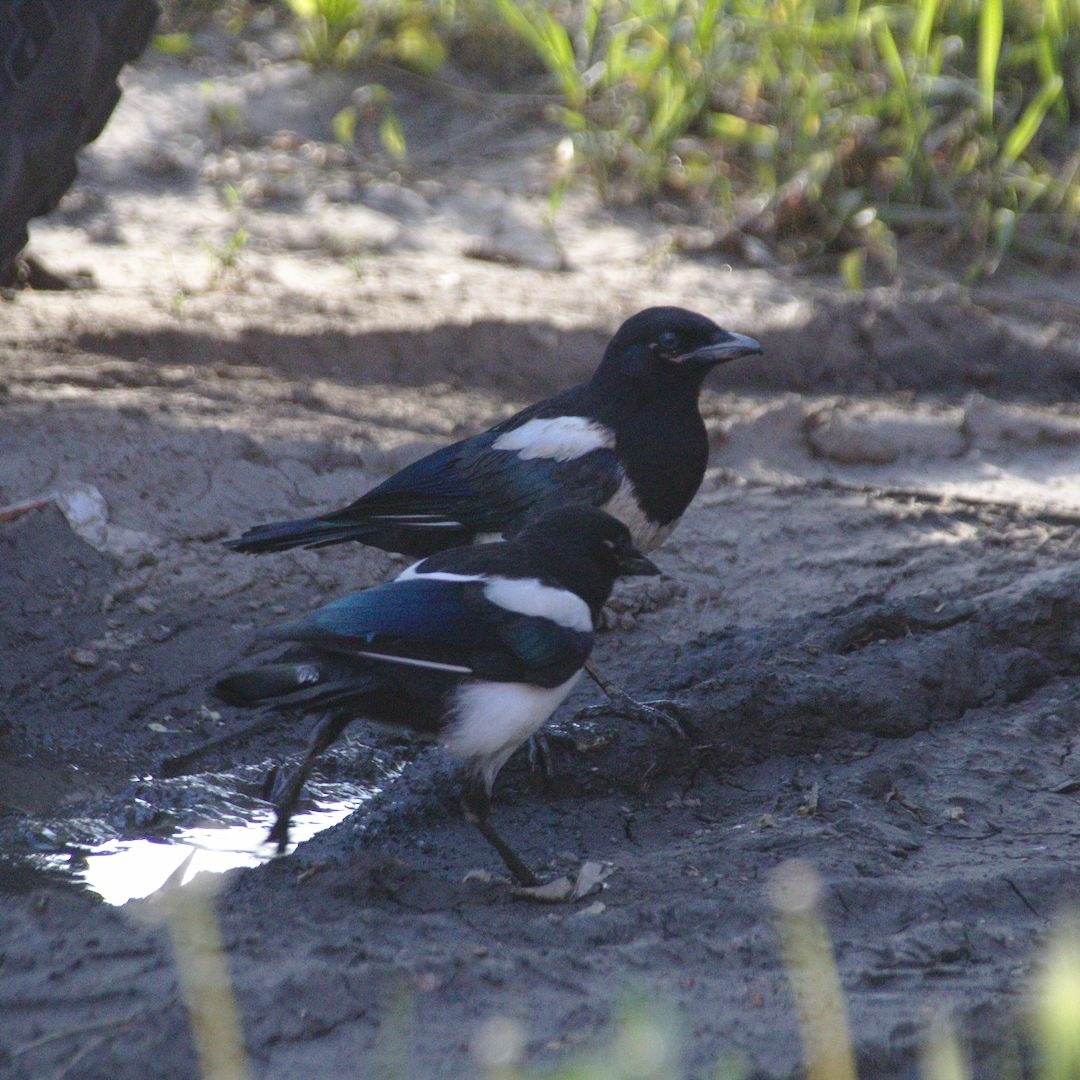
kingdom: Animalia
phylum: Chordata
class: Aves
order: Passeriformes
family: Corvidae
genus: Pica
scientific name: Pica pica
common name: Eurasian magpie
